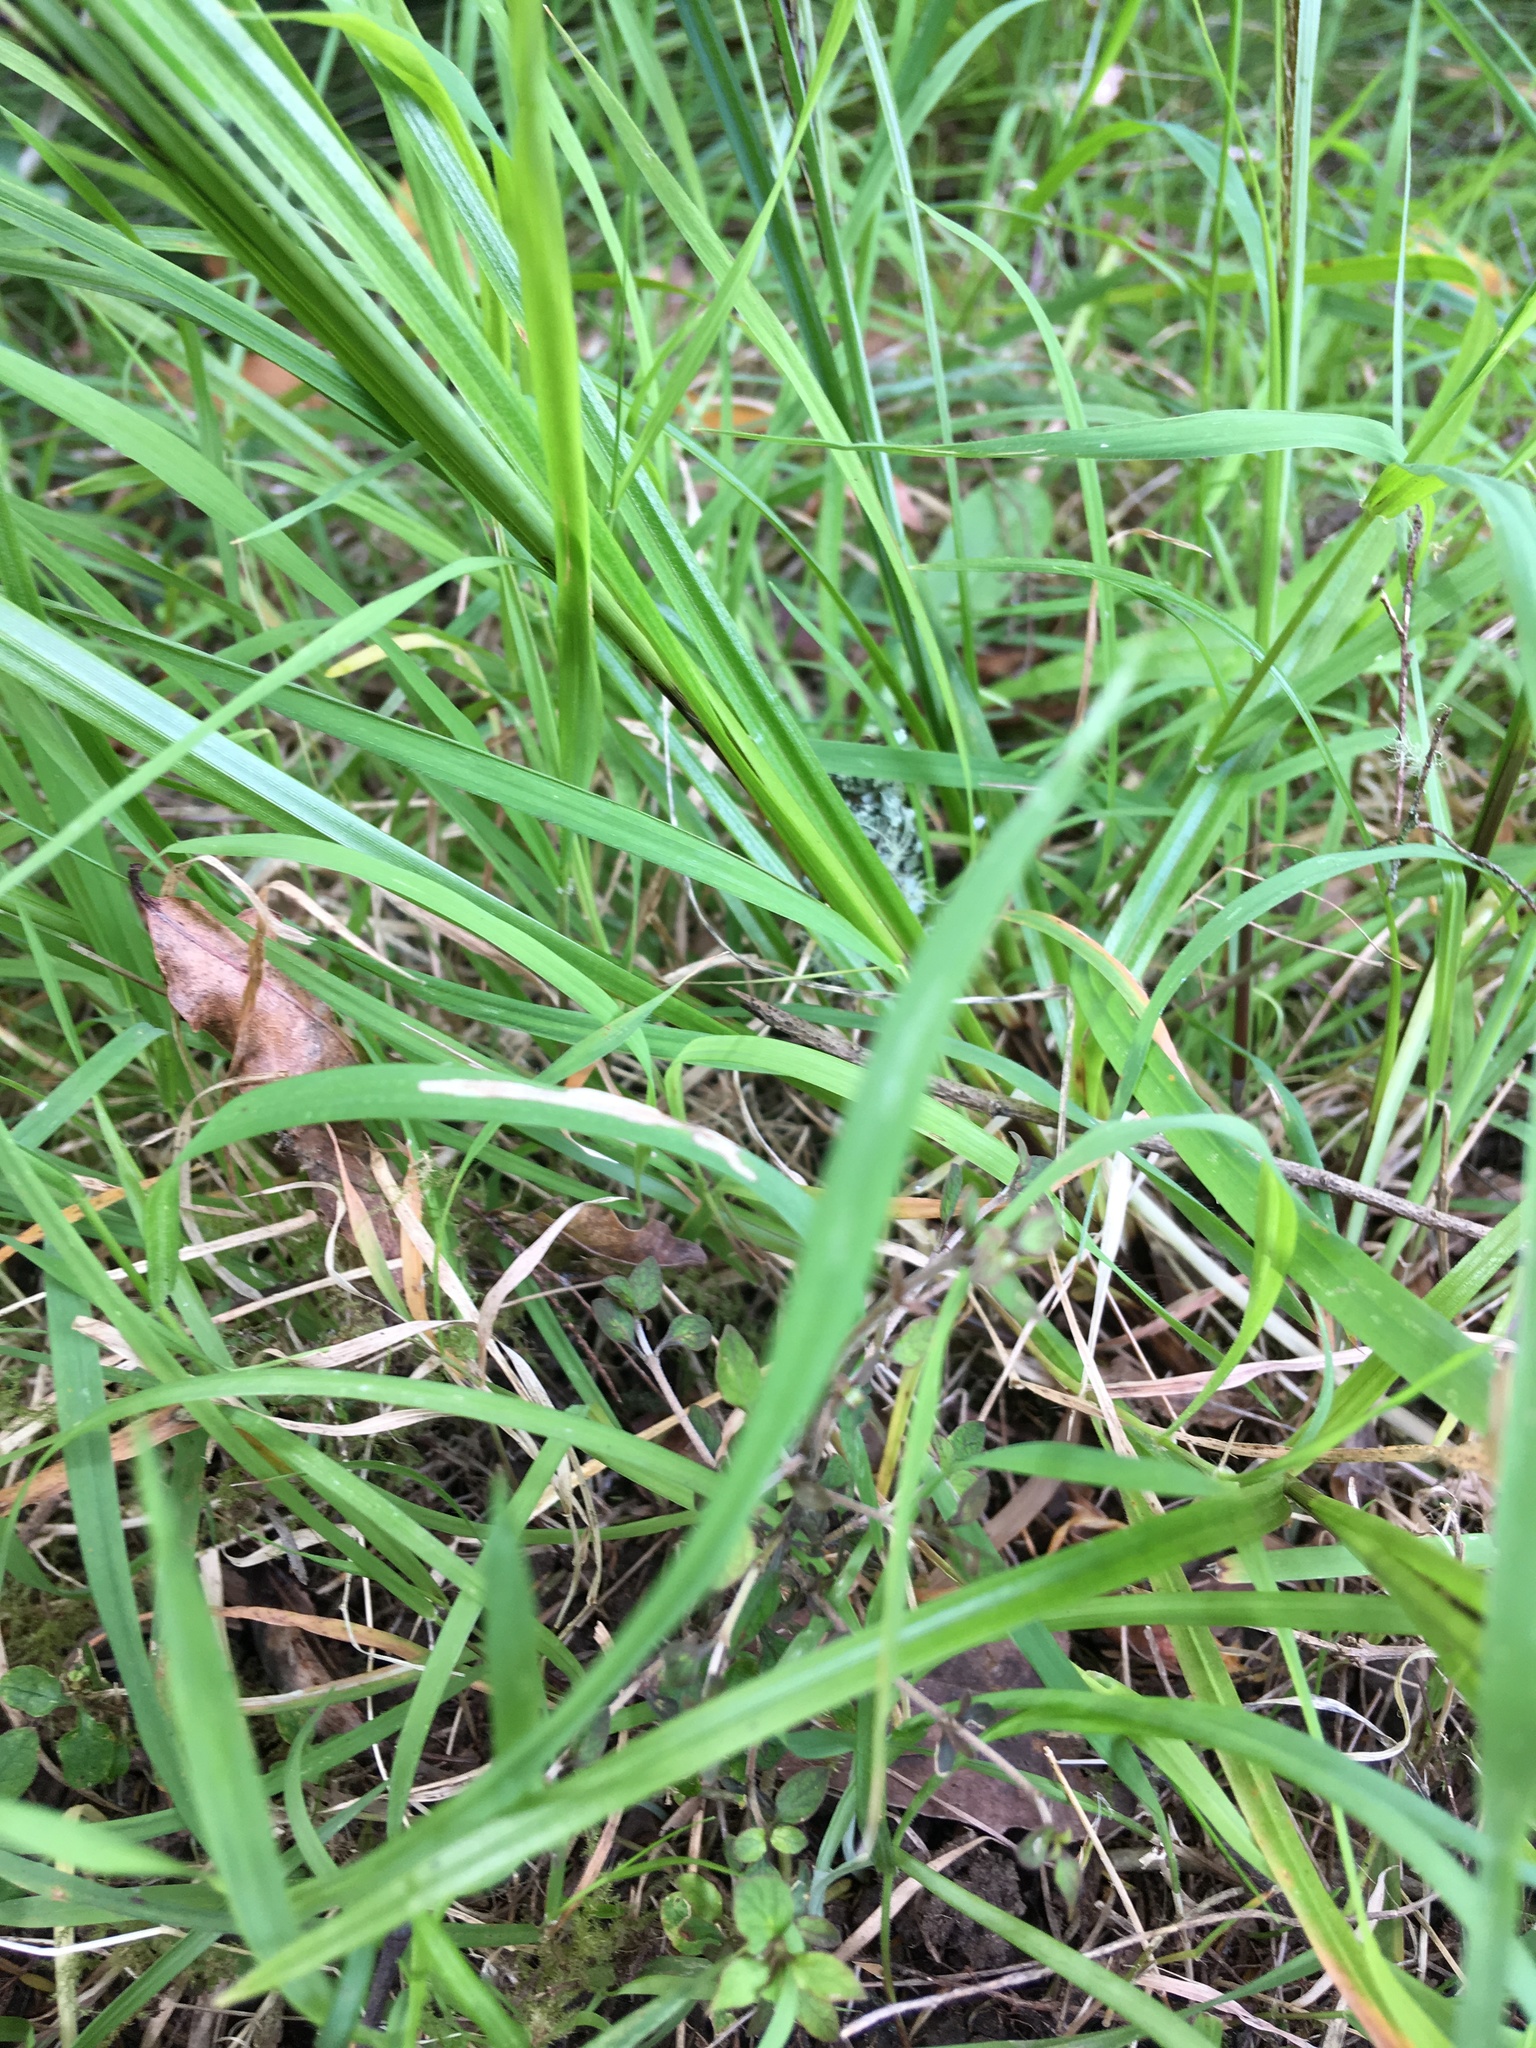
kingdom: Plantae
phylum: Tracheophyta
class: Magnoliopsida
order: Gentianales
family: Rubiaceae
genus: Coprosma
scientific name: Coprosma areolata
